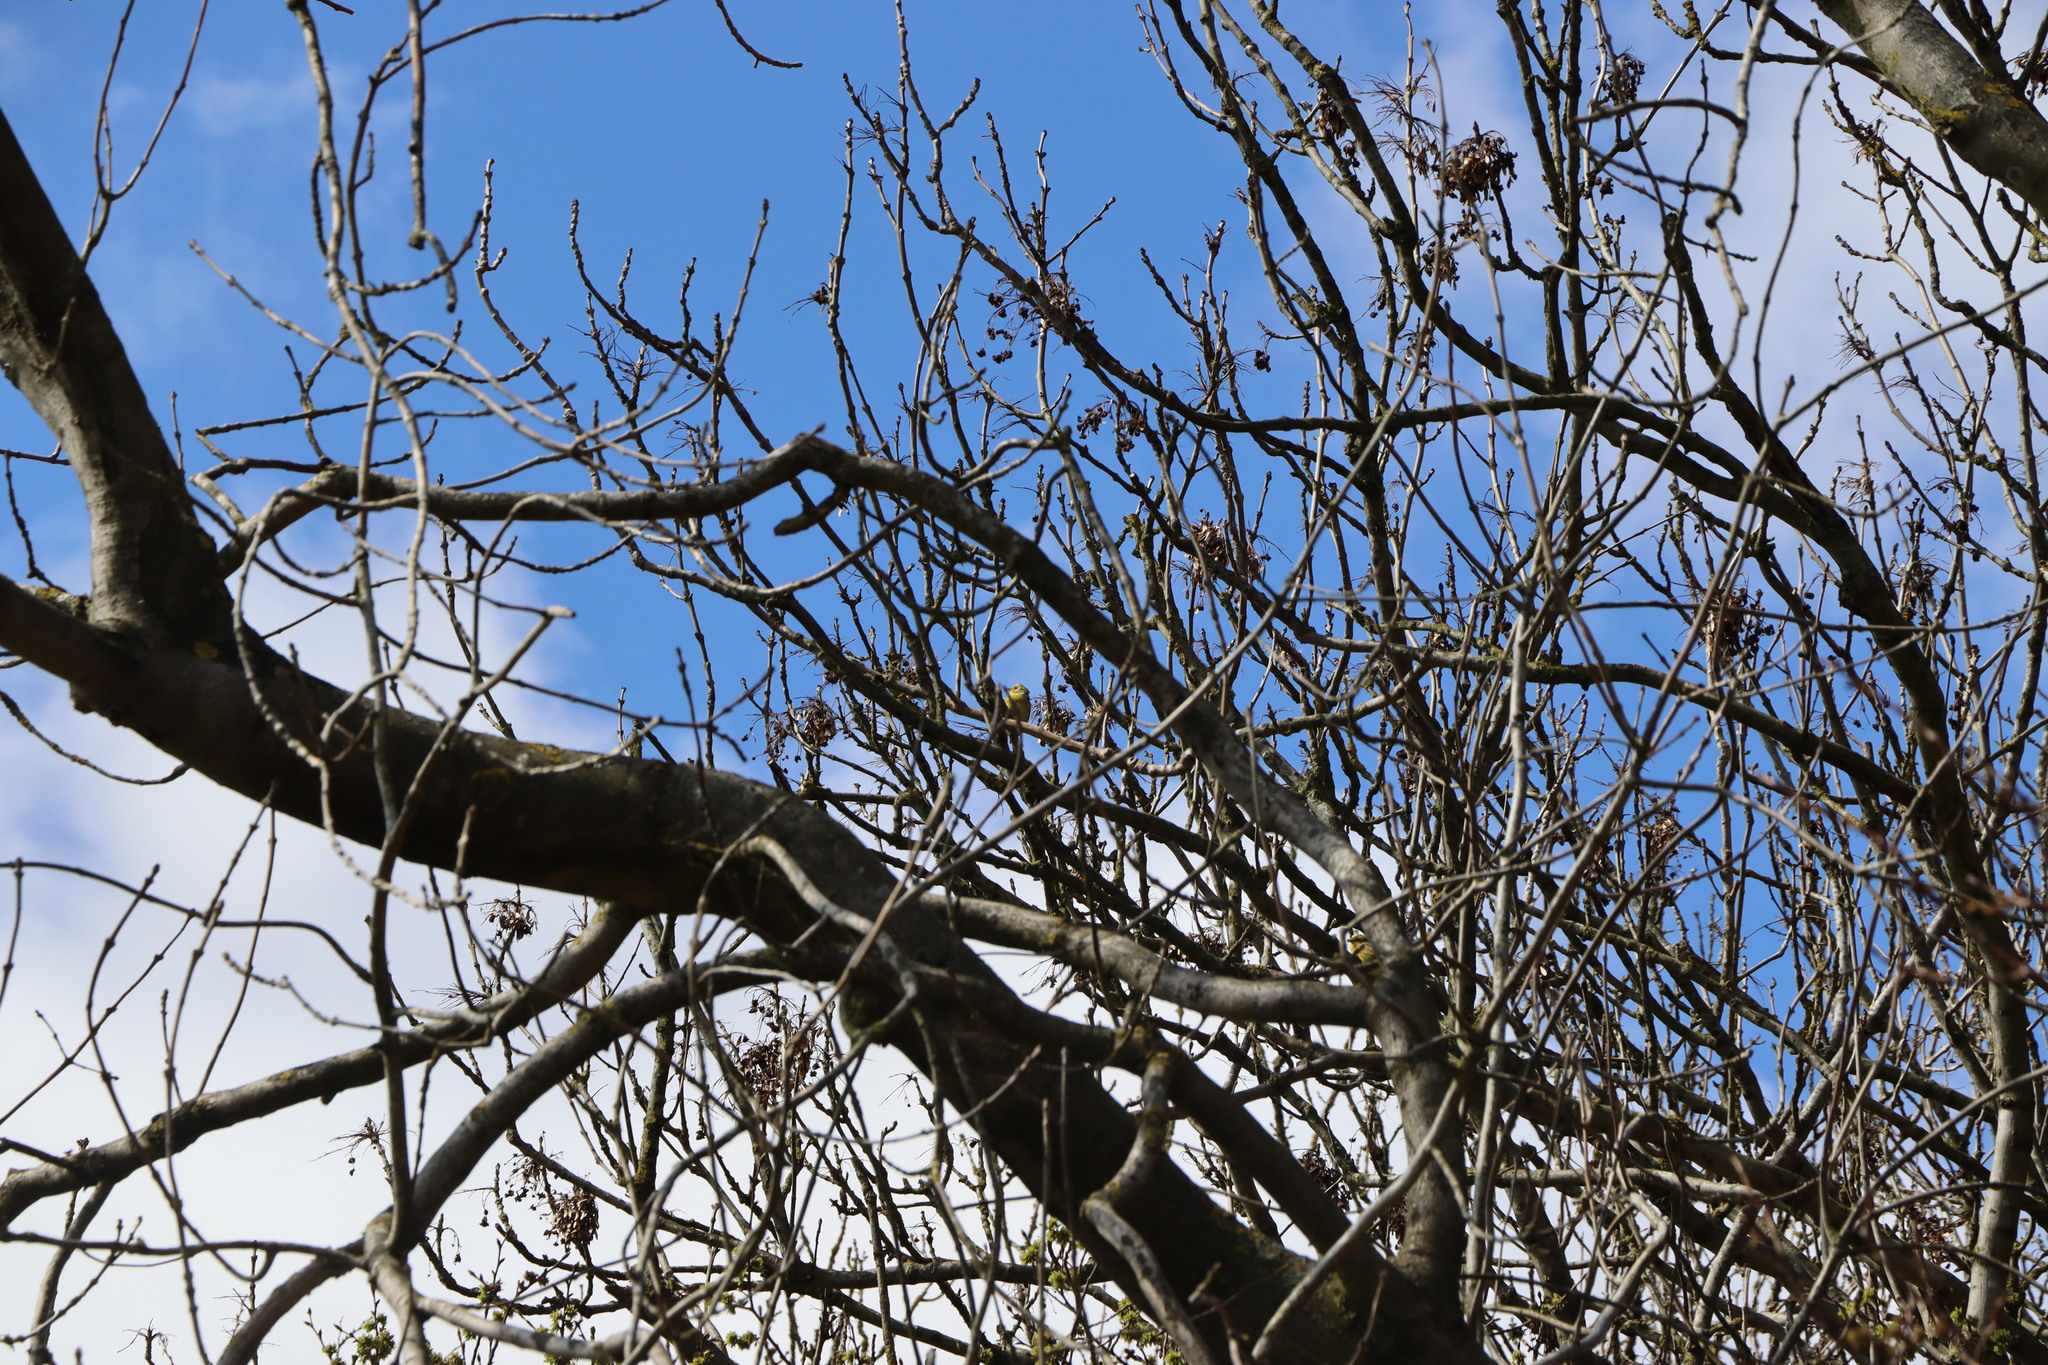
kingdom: Animalia
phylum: Chordata
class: Aves
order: Passeriformes
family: Emberizidae
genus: Emberiza
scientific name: Emberiza citrinella
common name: Yellowhammer
